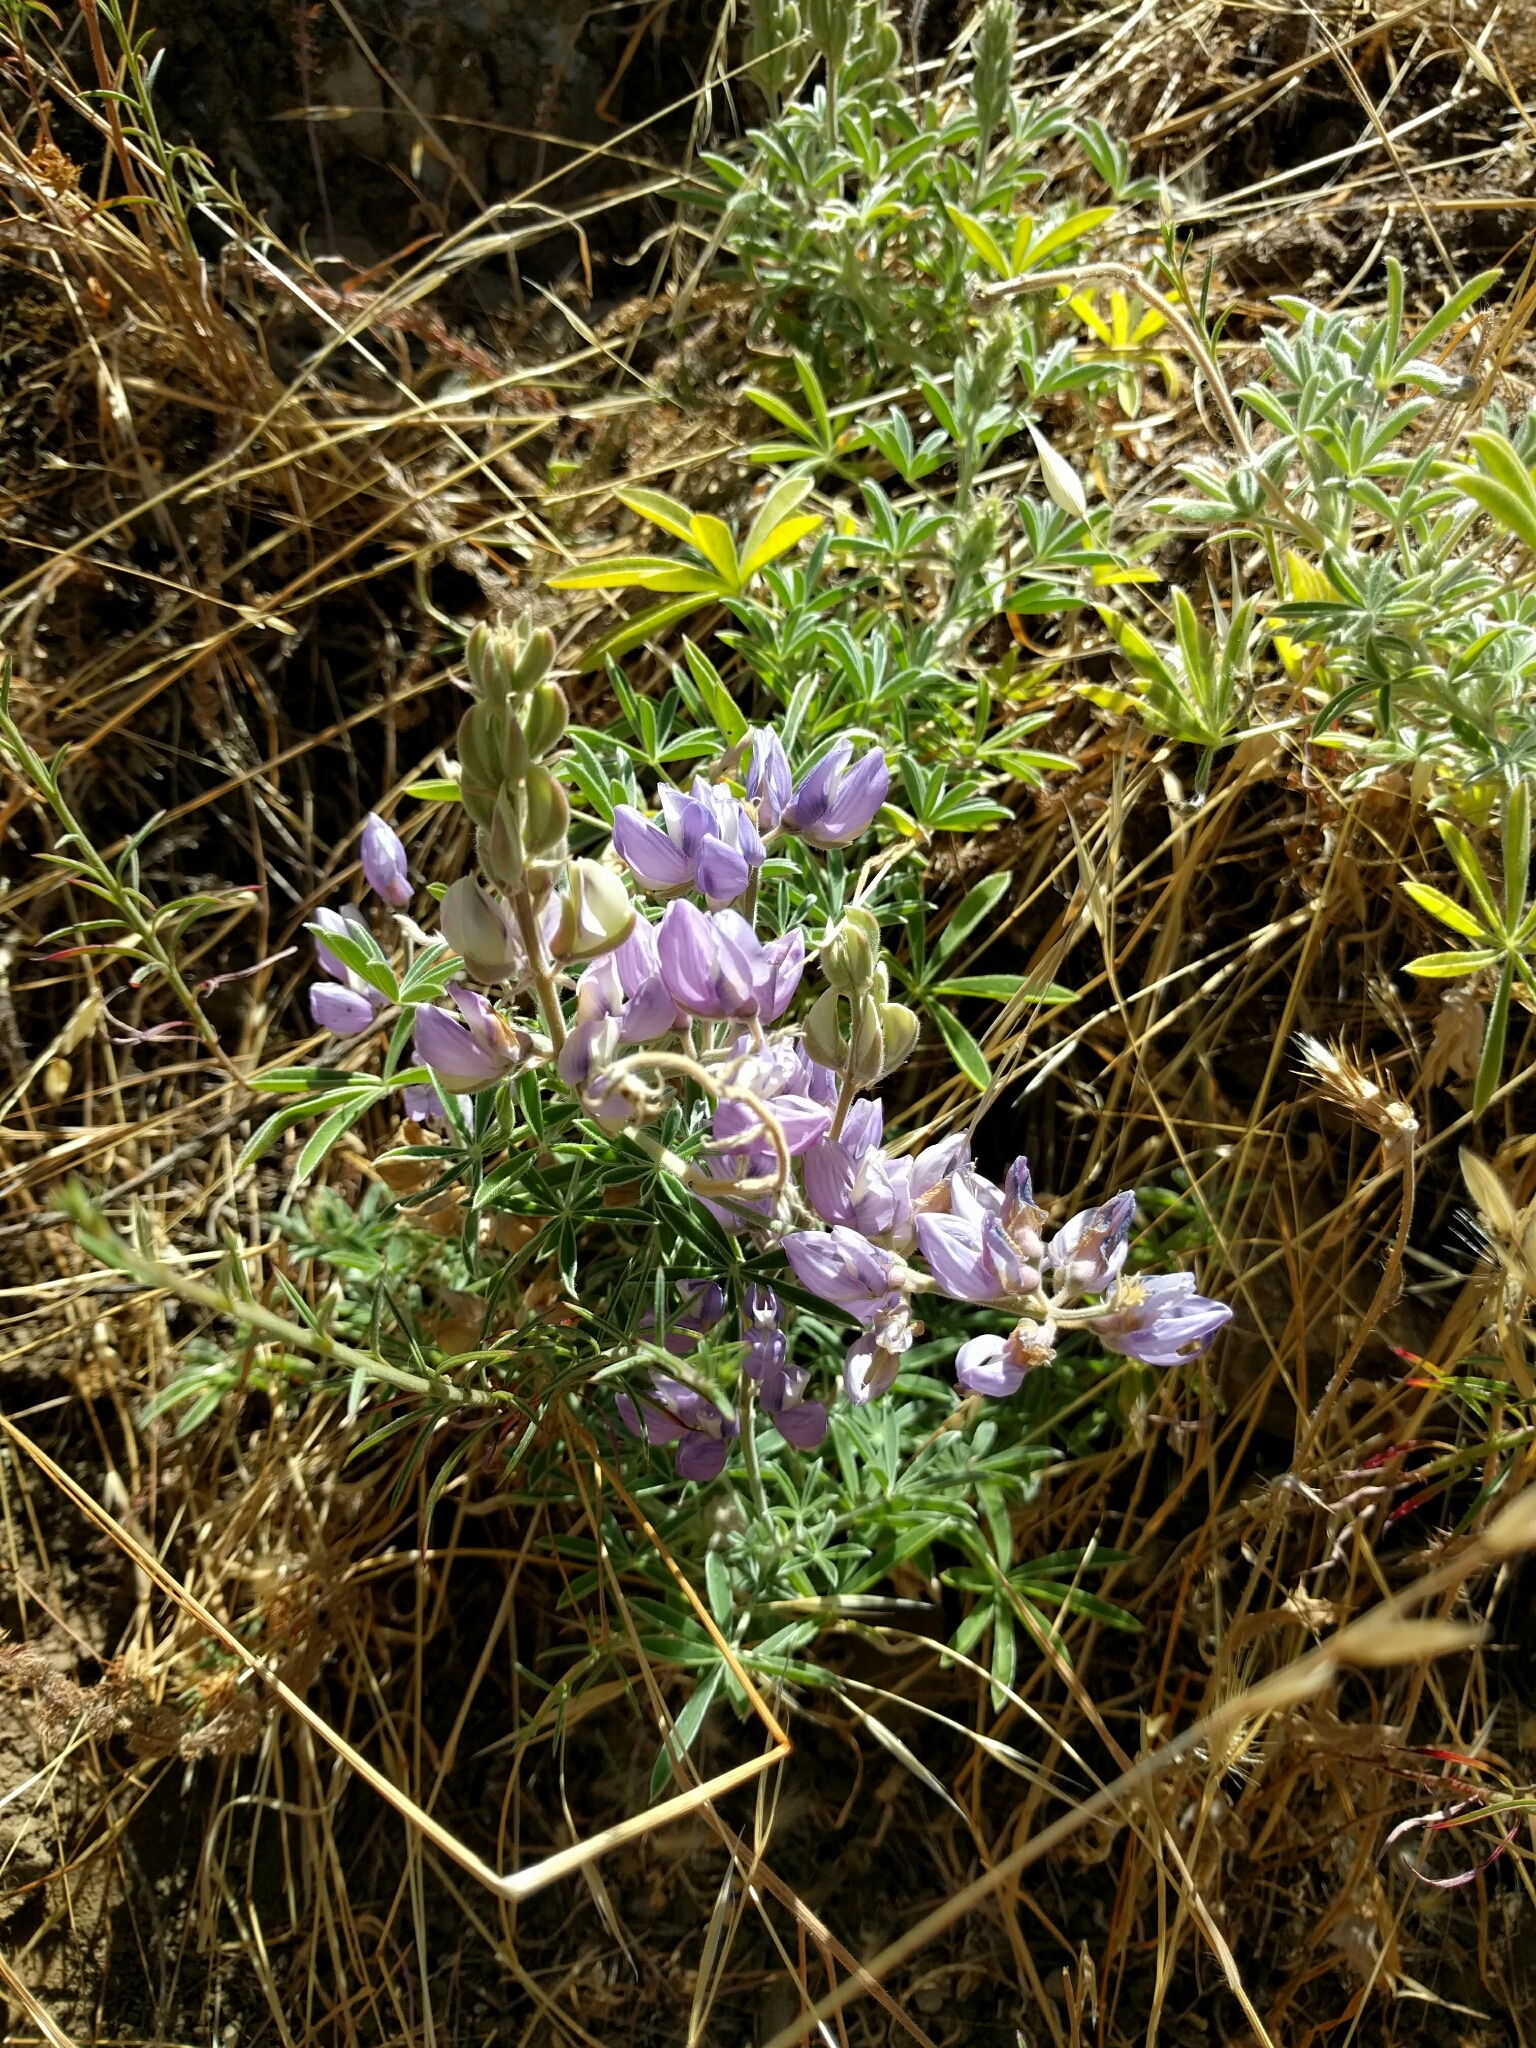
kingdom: Plantae
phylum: Tracheophyta
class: Magnoliopsida
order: Fabales
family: Fabaceae
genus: Lupinus
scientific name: Lupinus formosus
